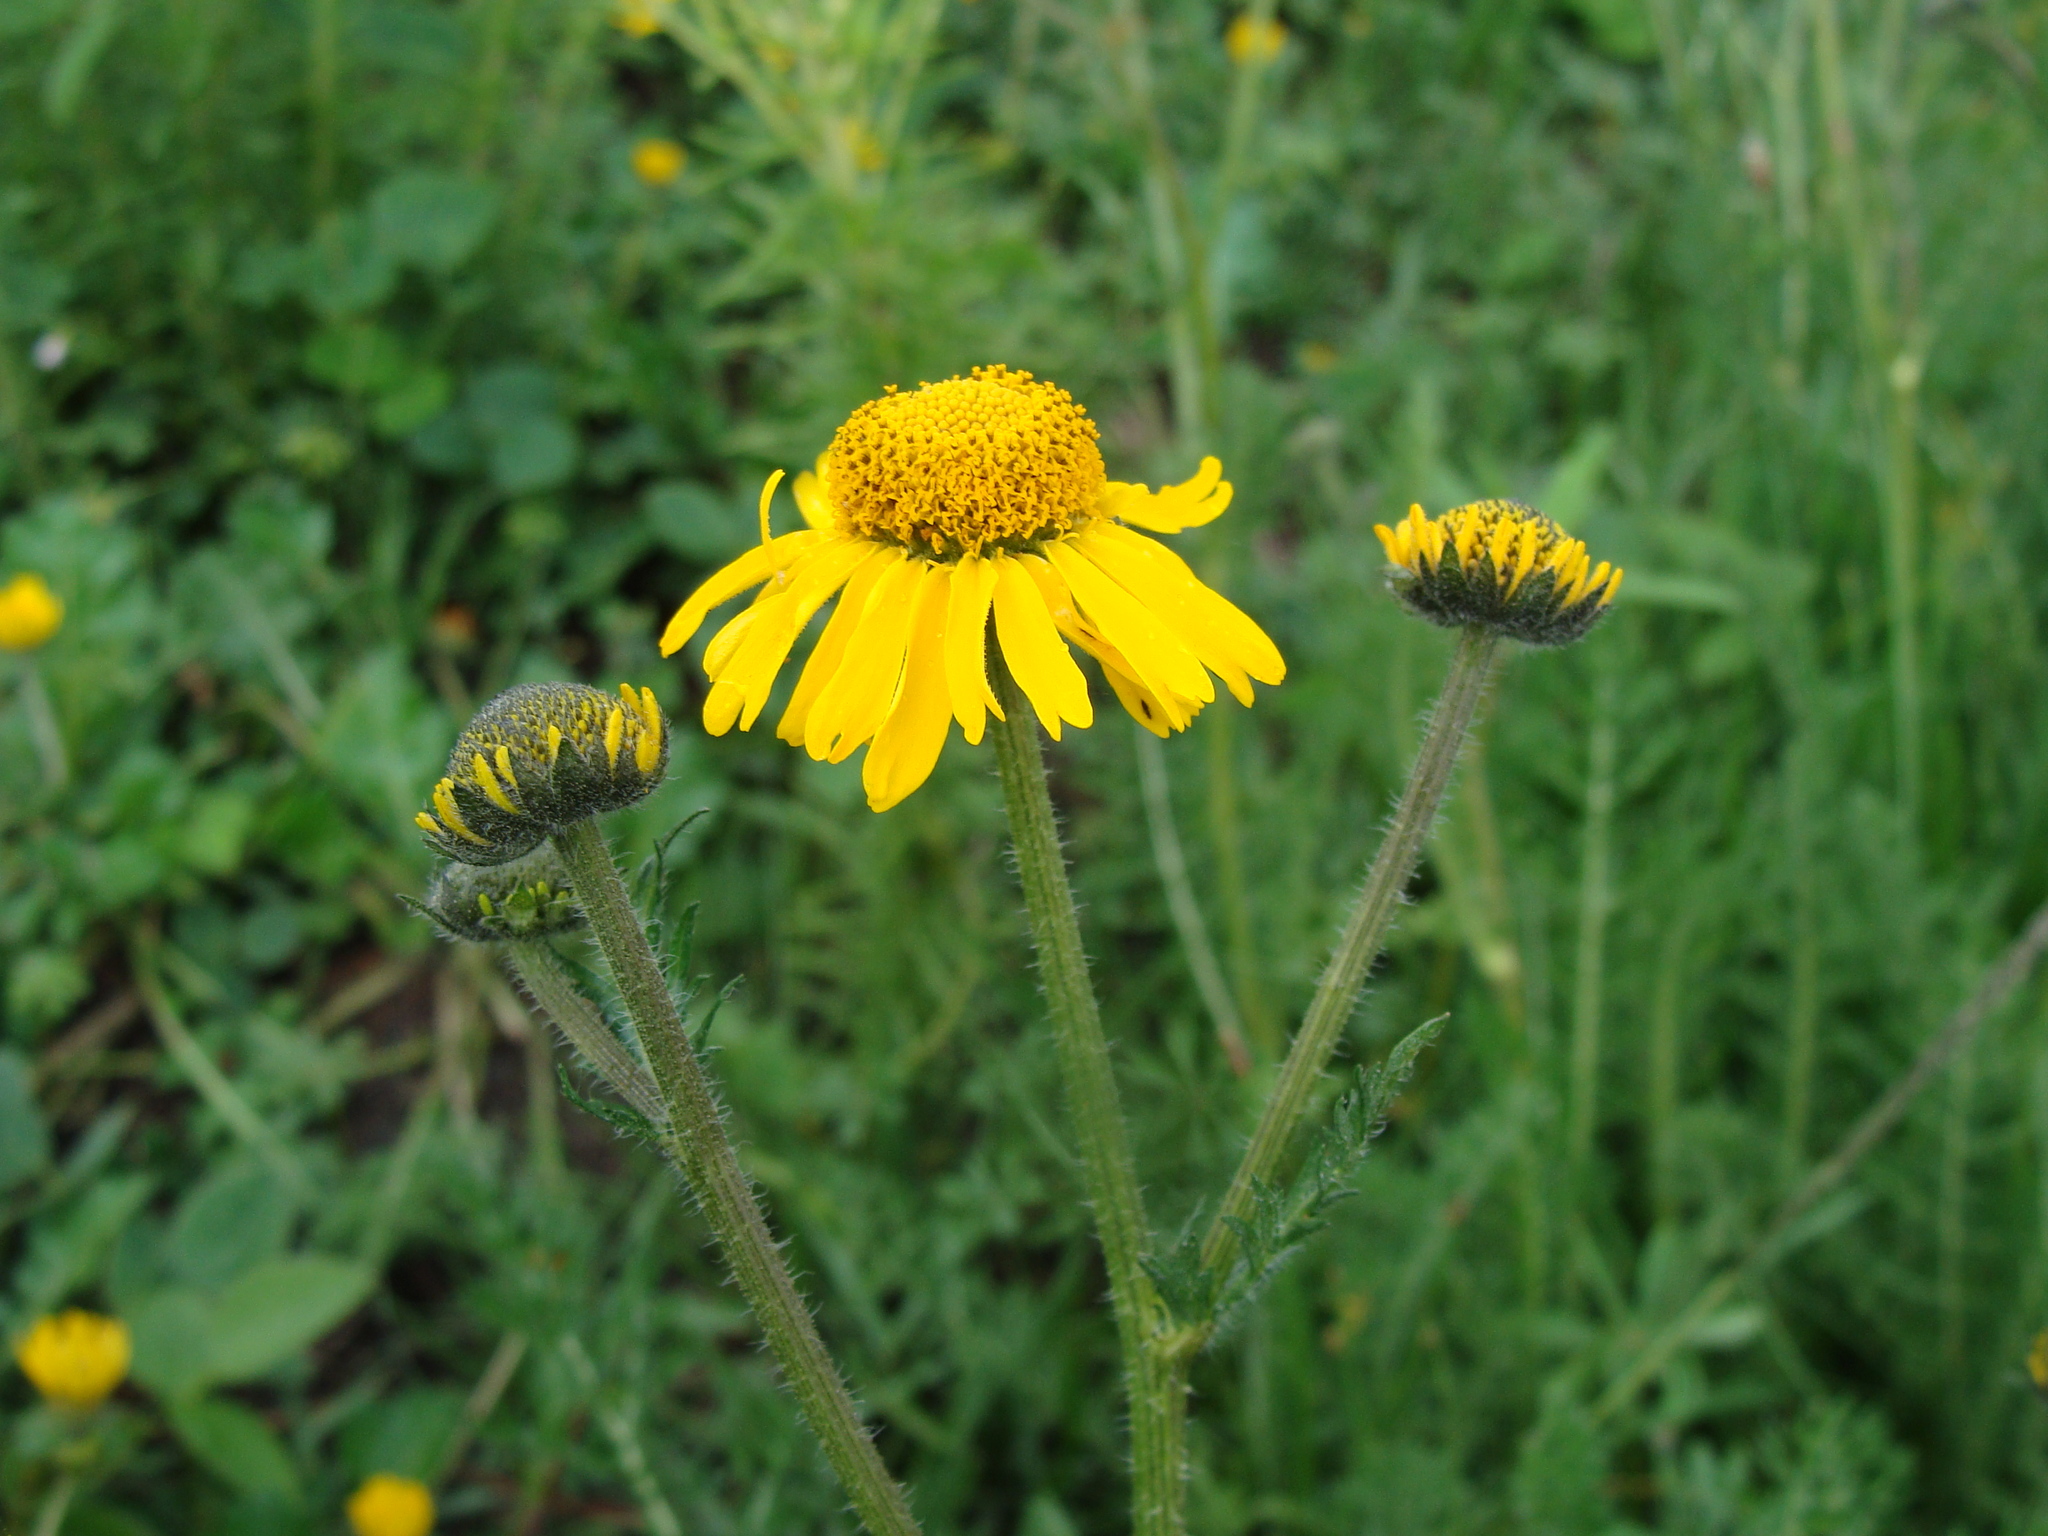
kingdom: Plantae
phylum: Tracheophyta
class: Magnoliopsida
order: Asterales
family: Asteraceae
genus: Hybridella
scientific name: Hybridella globosa
